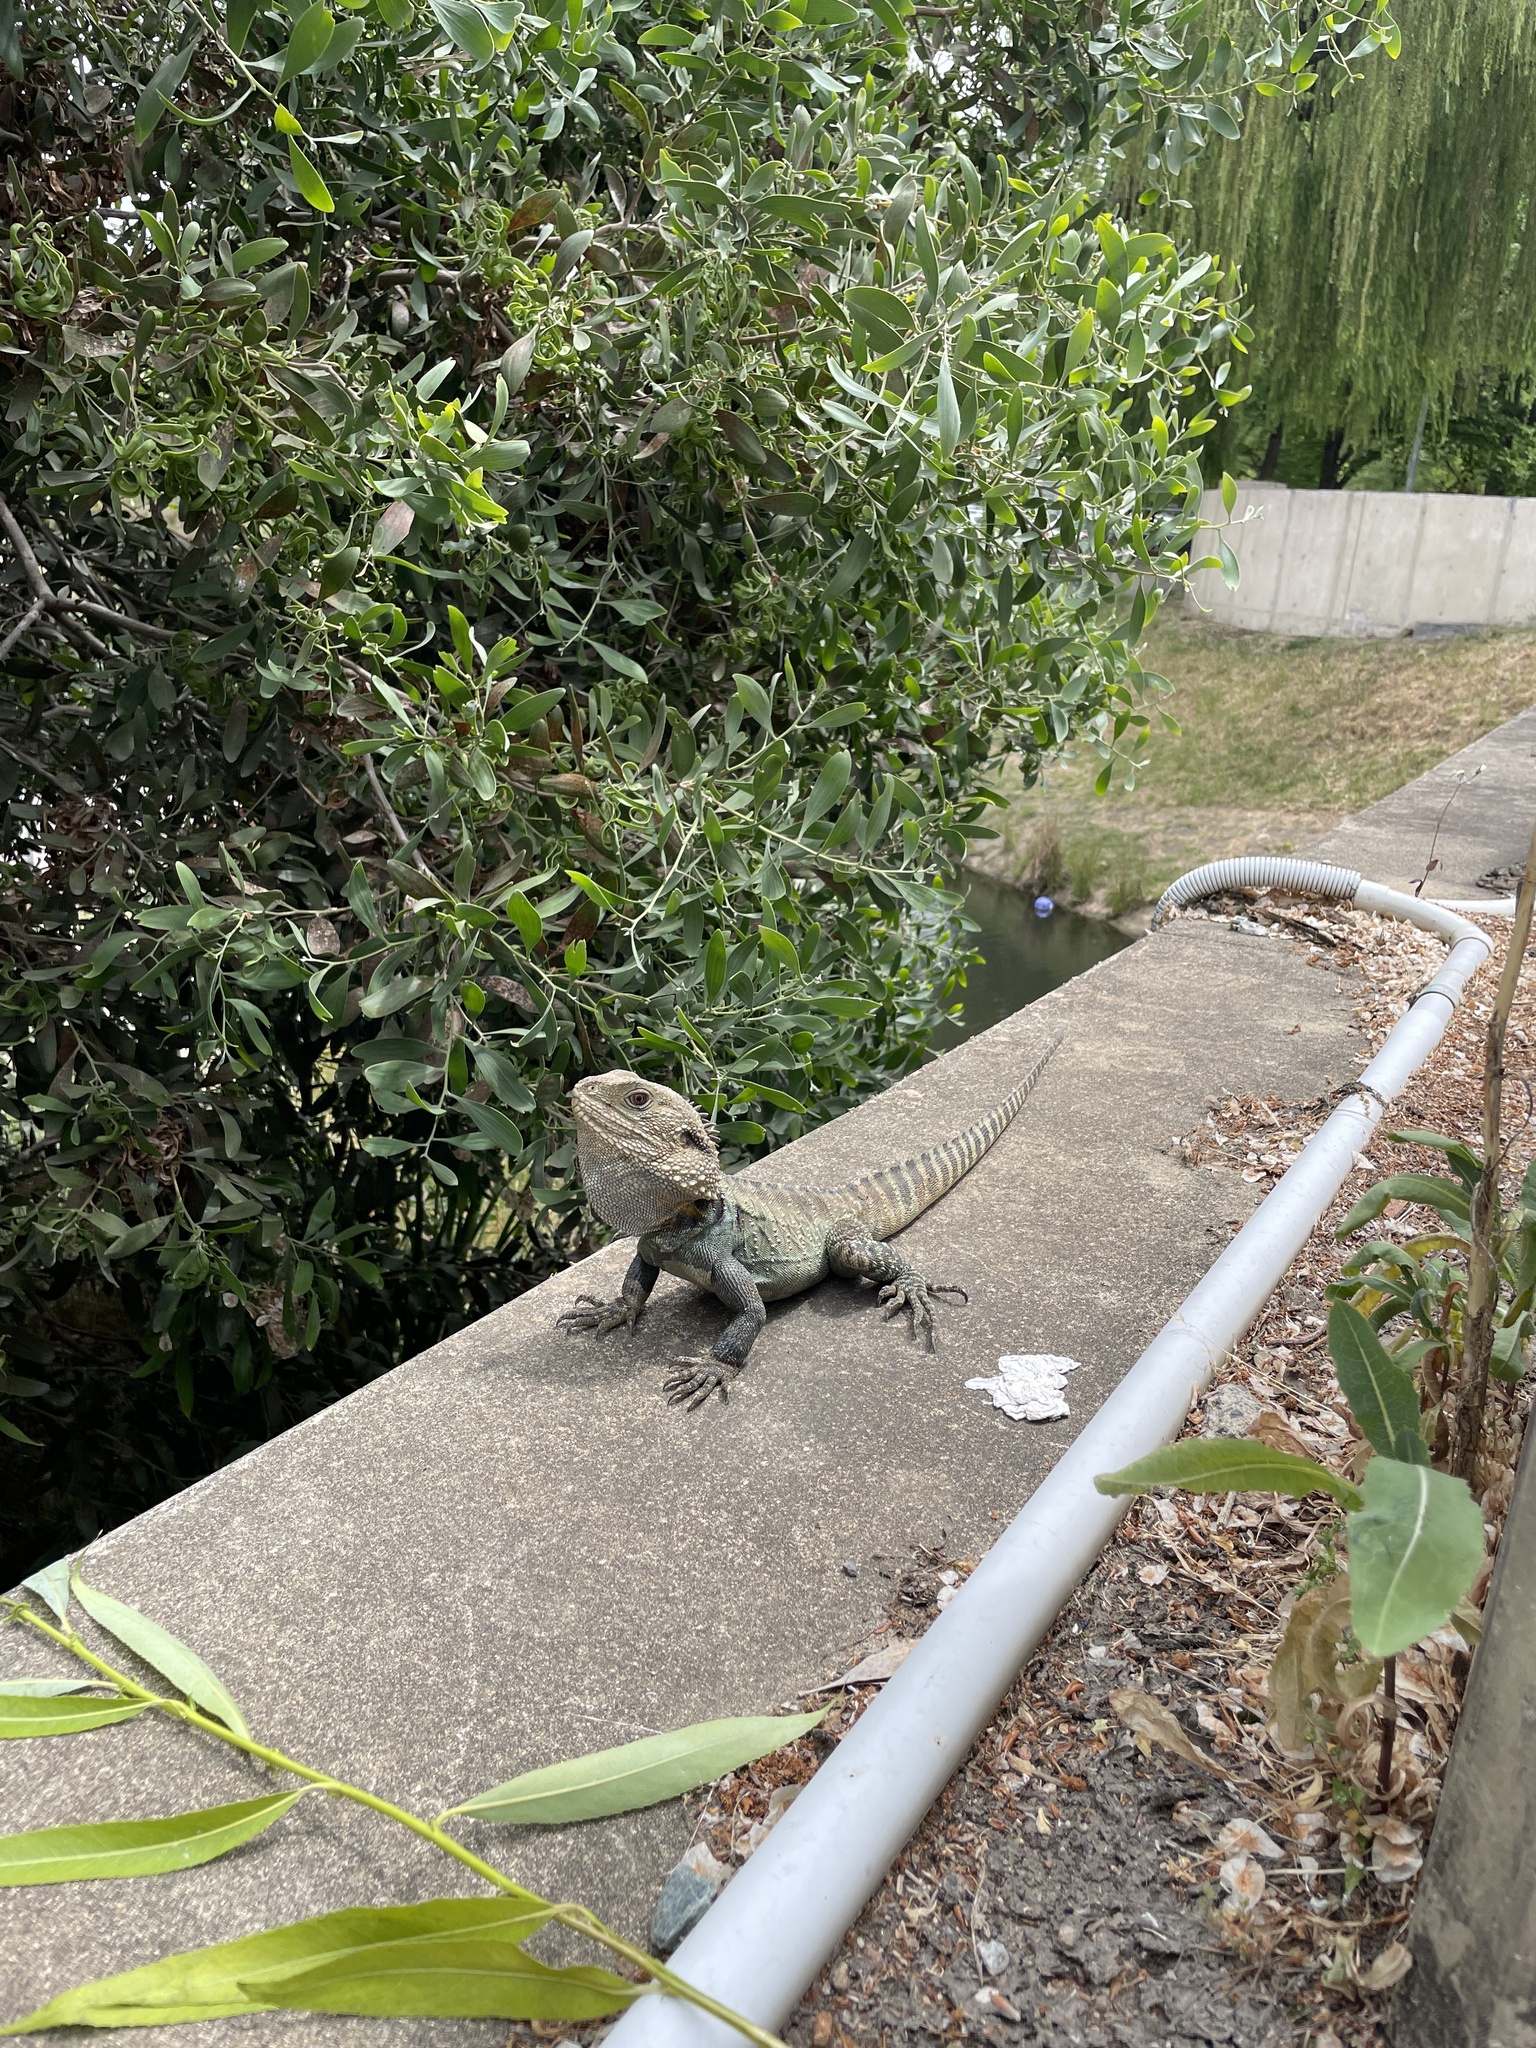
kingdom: Animalia
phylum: Chordata
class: Squamata
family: Agamidae
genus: Intellagama
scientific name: Intellagama lesueurii
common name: Eastern water dragon
